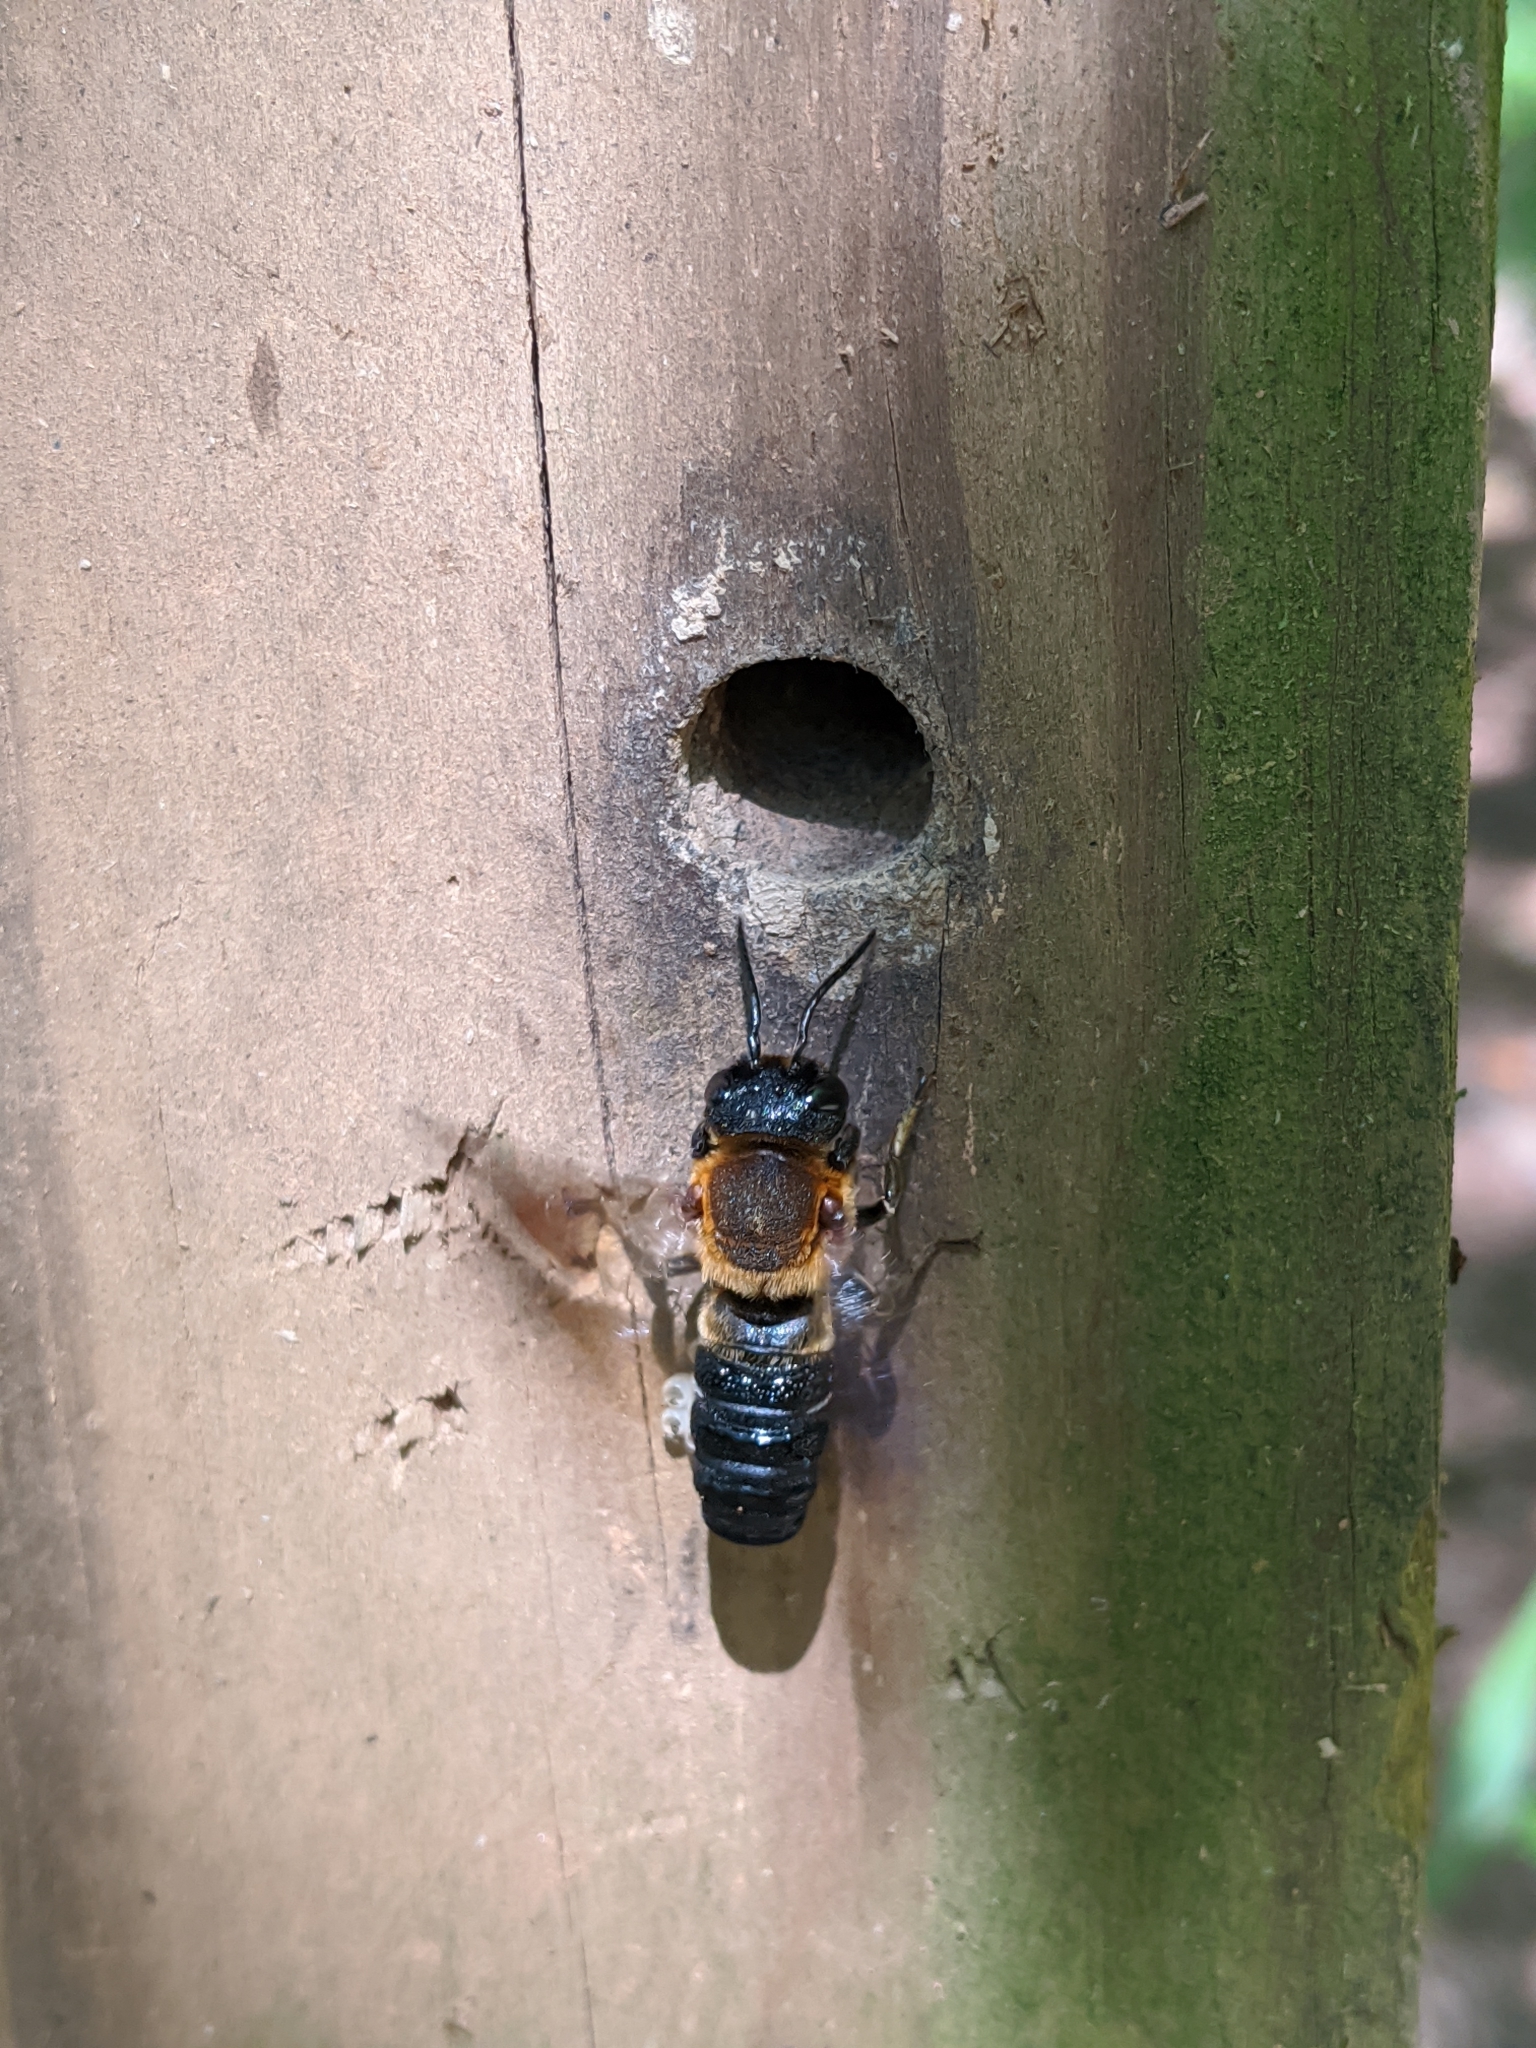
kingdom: Animalia
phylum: Arthropoda
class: Insecta
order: Hymenoptera
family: Megachilidae
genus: Megachile
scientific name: Megachile sculpturalis
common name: Sculptured resin bee
